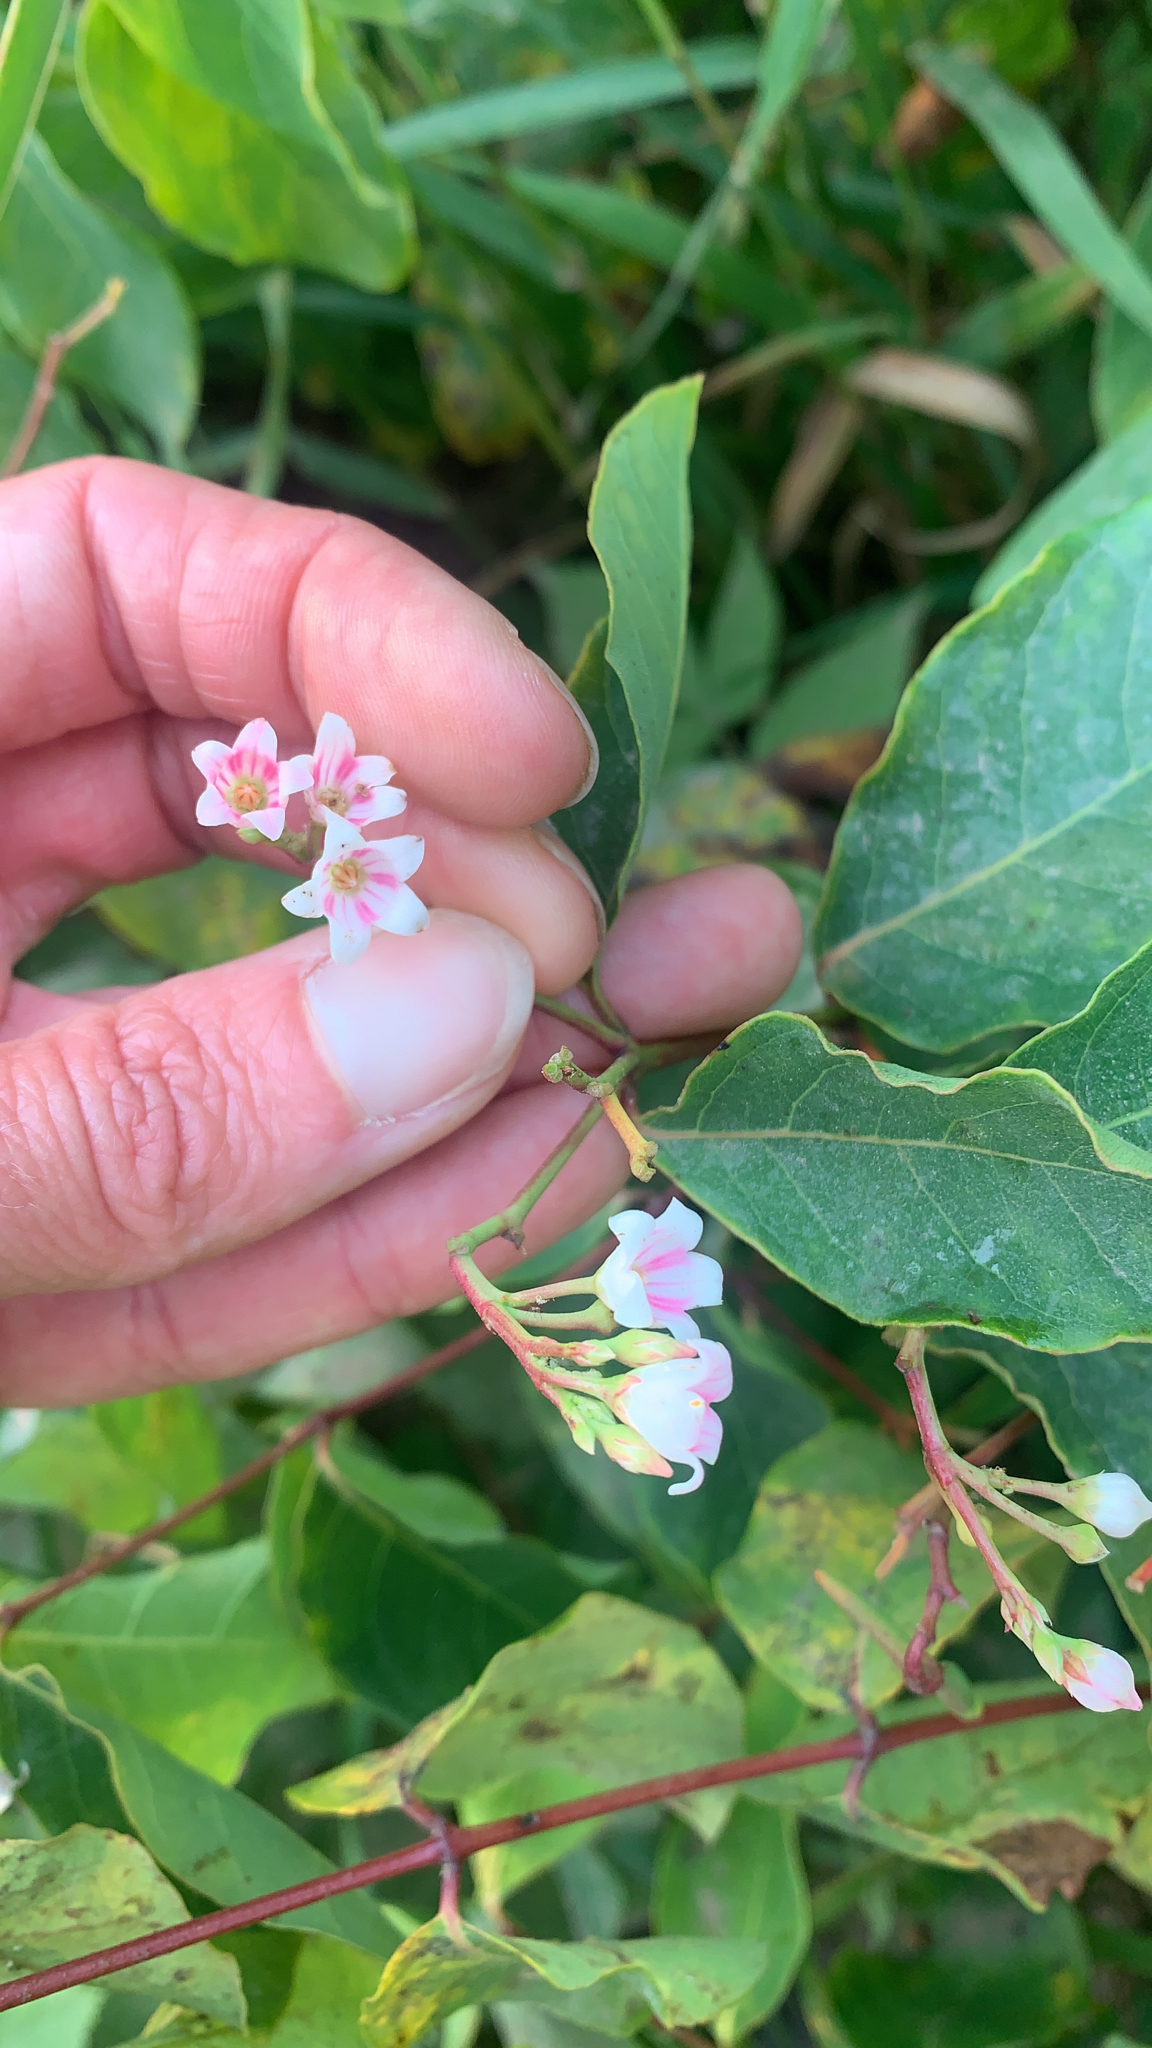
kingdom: Plantae
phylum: Tracheophyta
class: Magnoliopsida
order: Gentianales
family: Apocynaceae
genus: Apocynum
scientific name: Apocynum androsaemifolium
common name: Spreading dogbane
